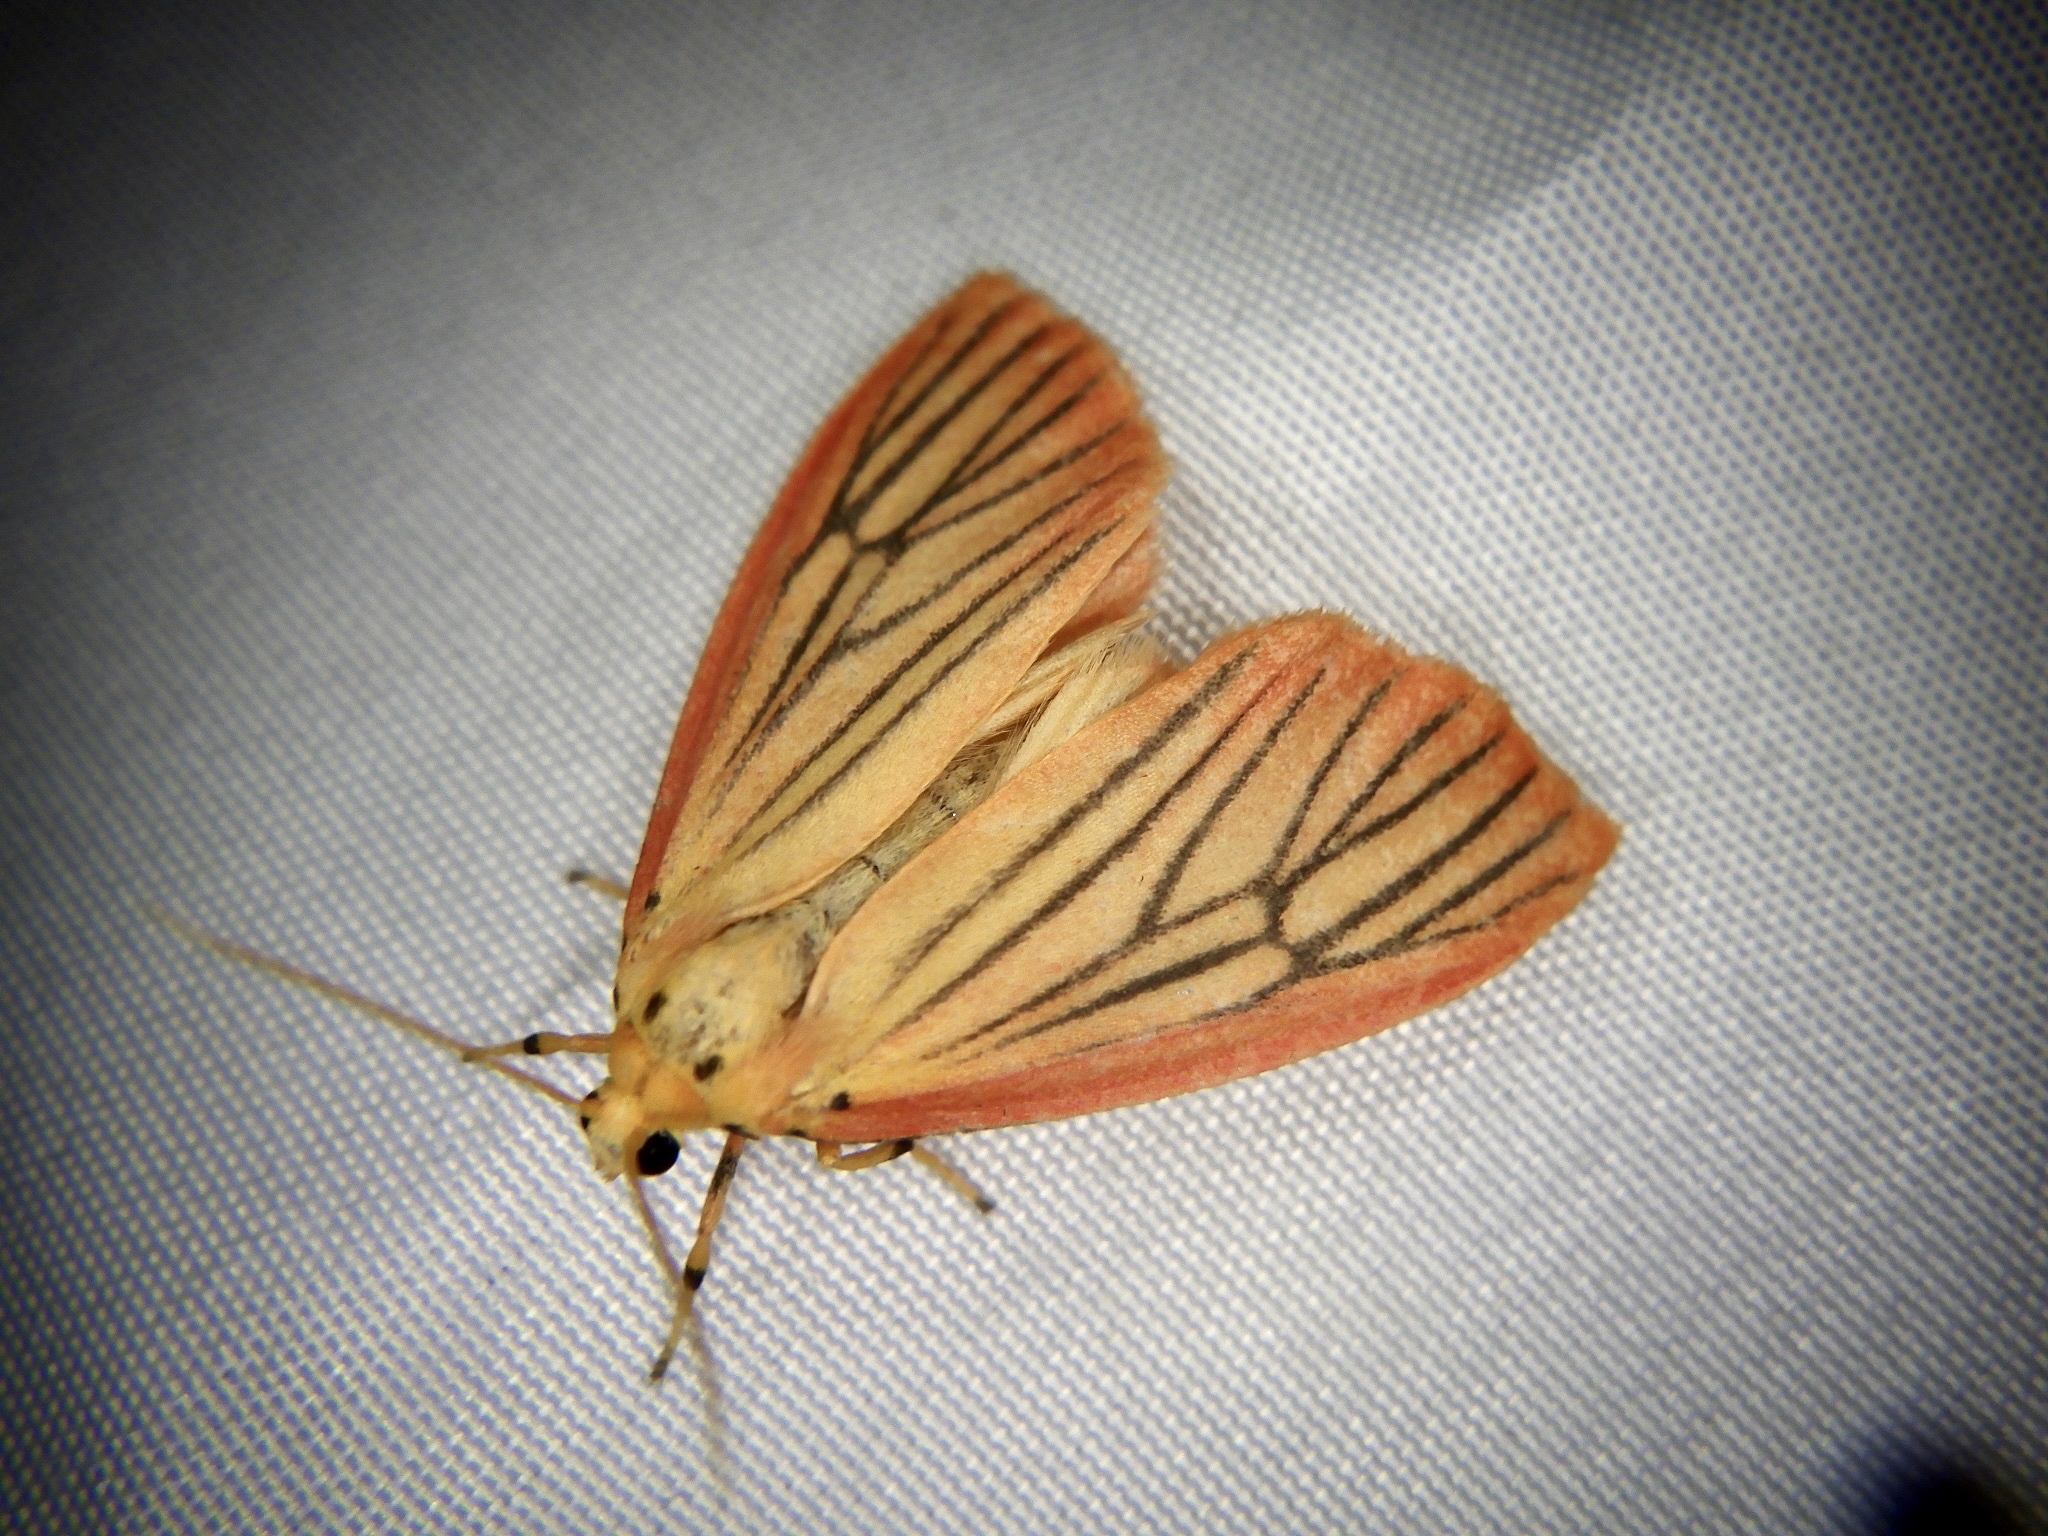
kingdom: Animalia
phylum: Arthropoda
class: Insecta
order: Lepidoptera
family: Erebidae
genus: Melanaema
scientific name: Melanaema venata
